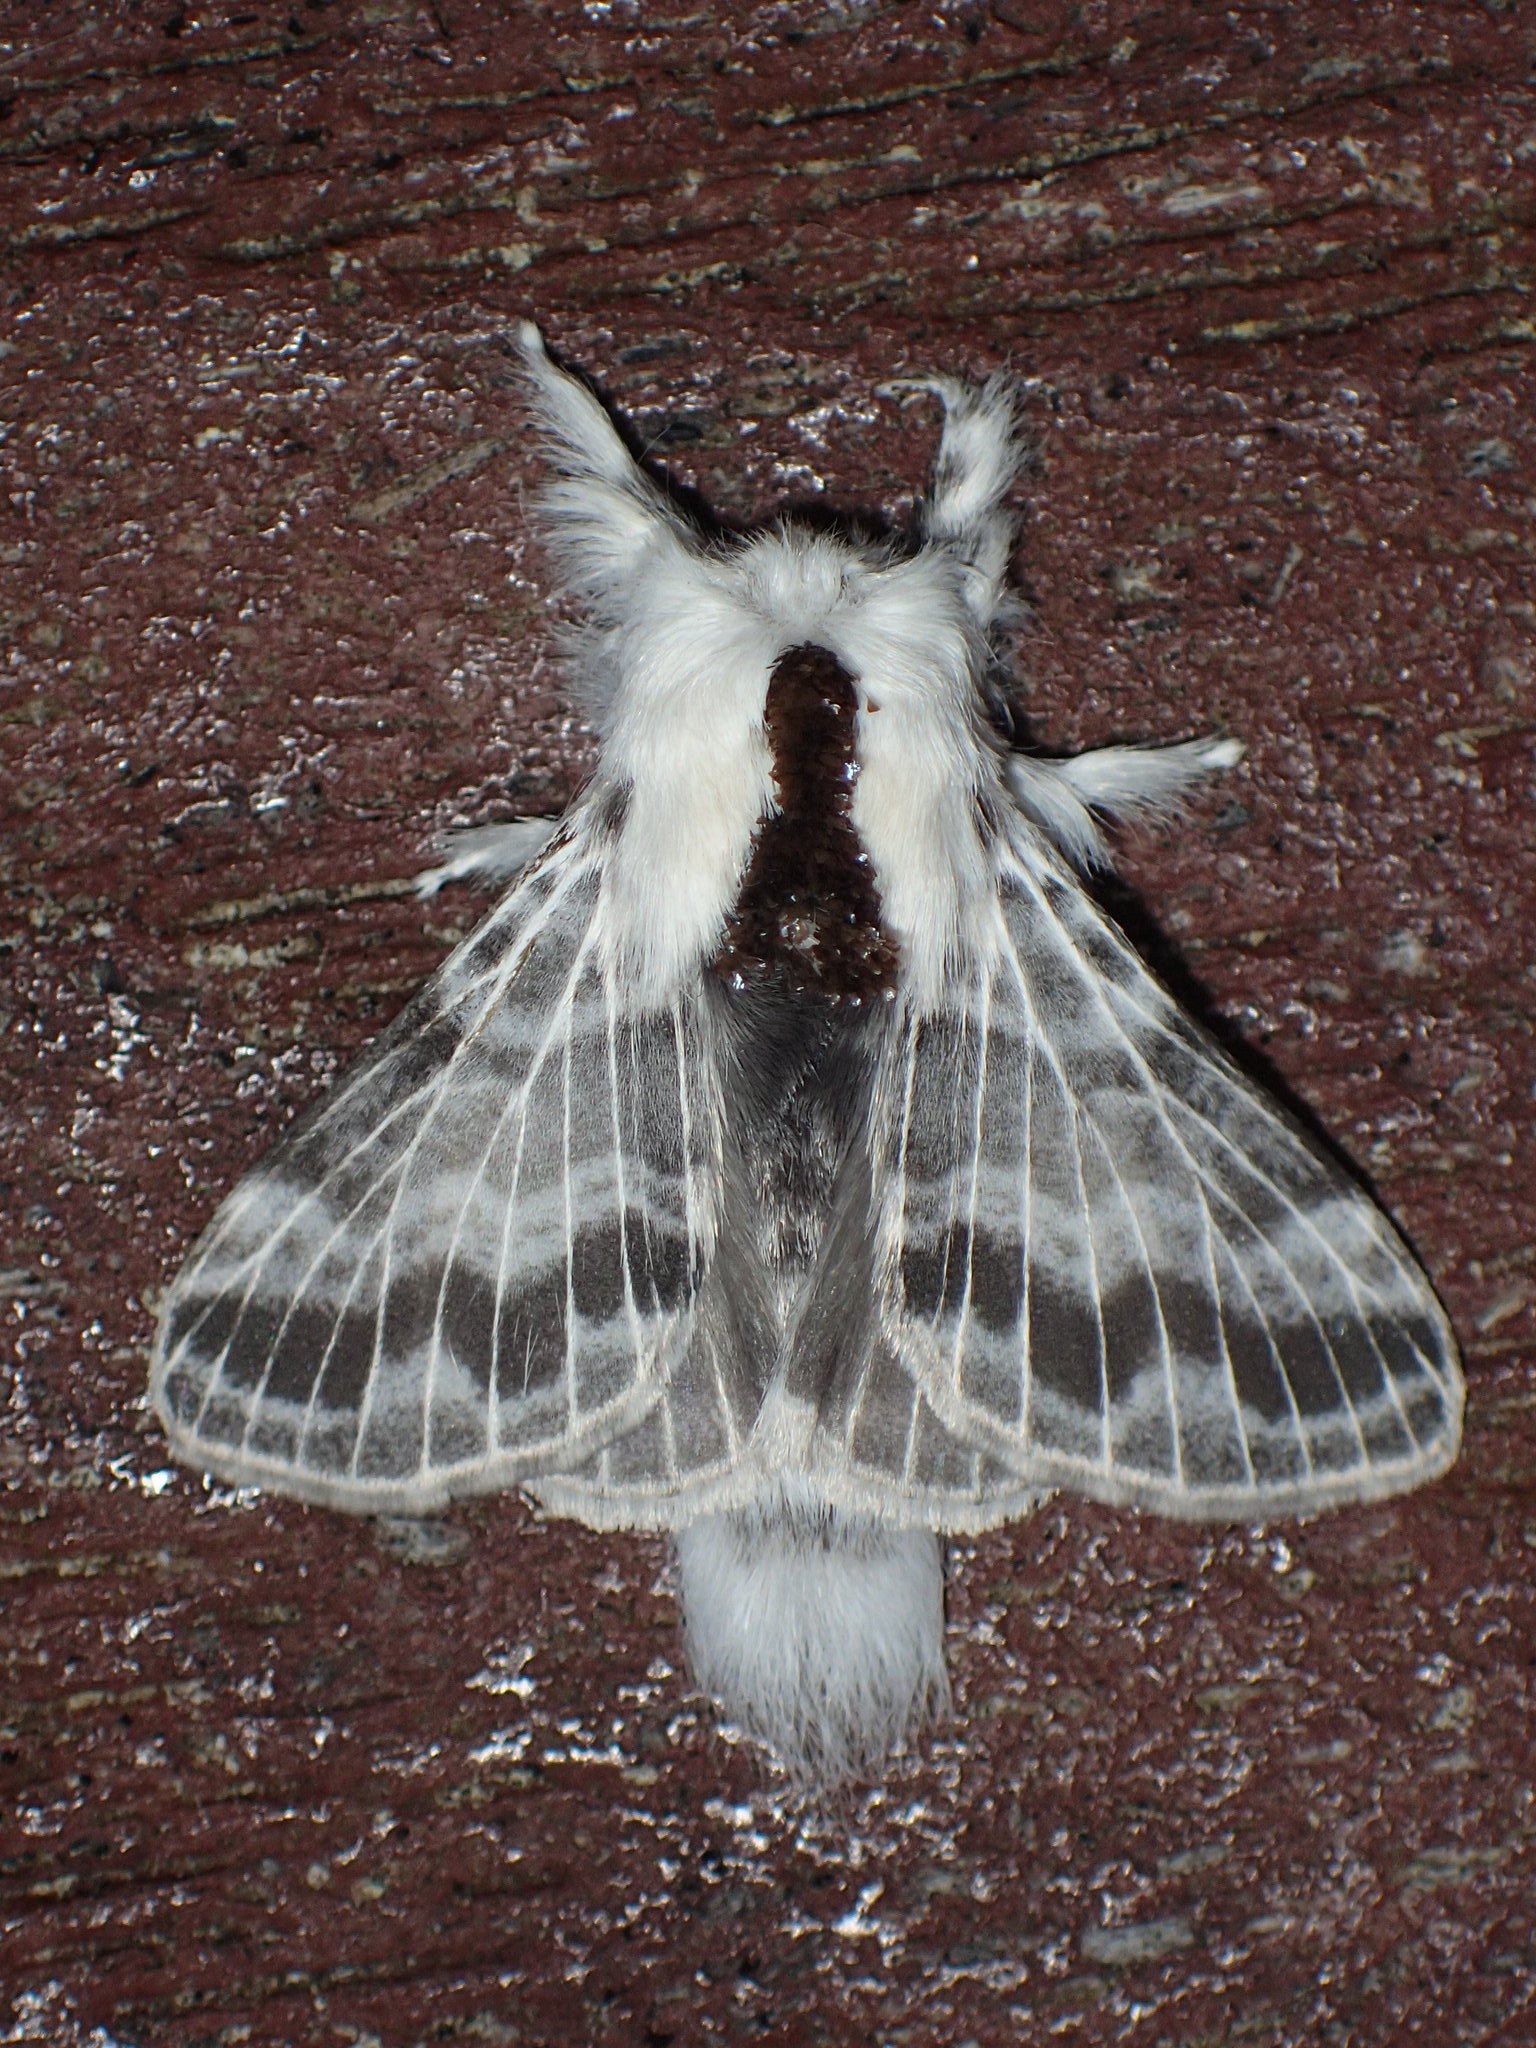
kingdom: Animalia
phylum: Arthropoda
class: Insecta
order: Lepidoptera
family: Lasiocampidae
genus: Tolype
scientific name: Tolype notialis
